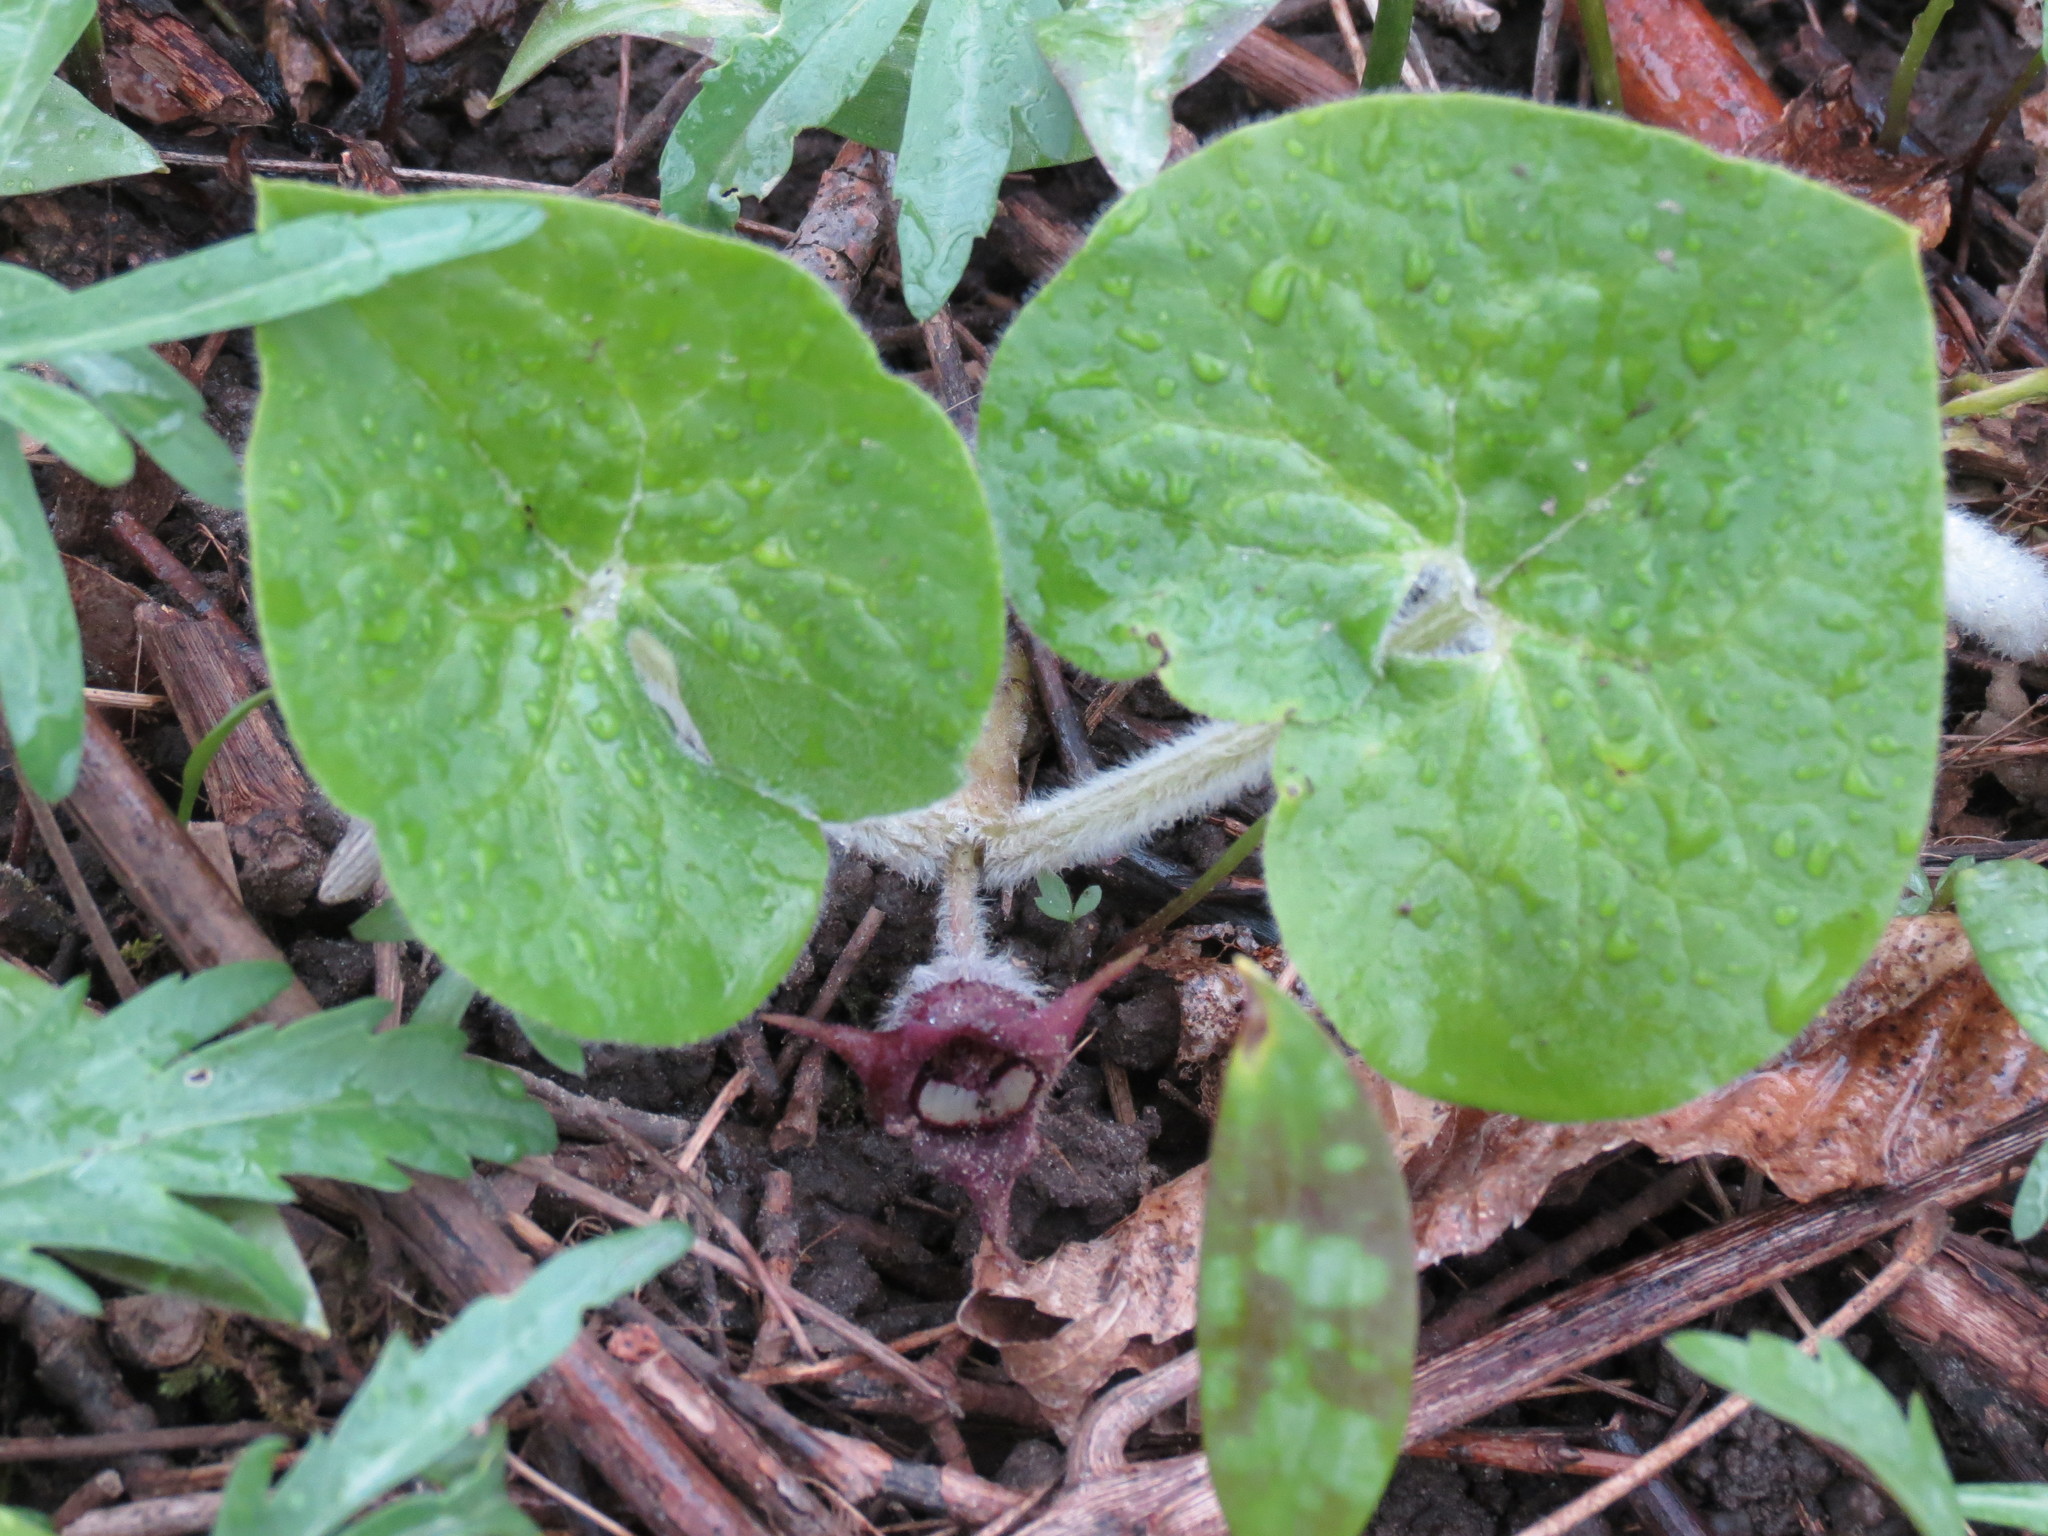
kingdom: Plantae
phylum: Tracheophyta
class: Magnoliopsida
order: Piperales
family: Aristolochiaceae
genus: Asarum
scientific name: Asarum canadense
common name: Wild ginger
